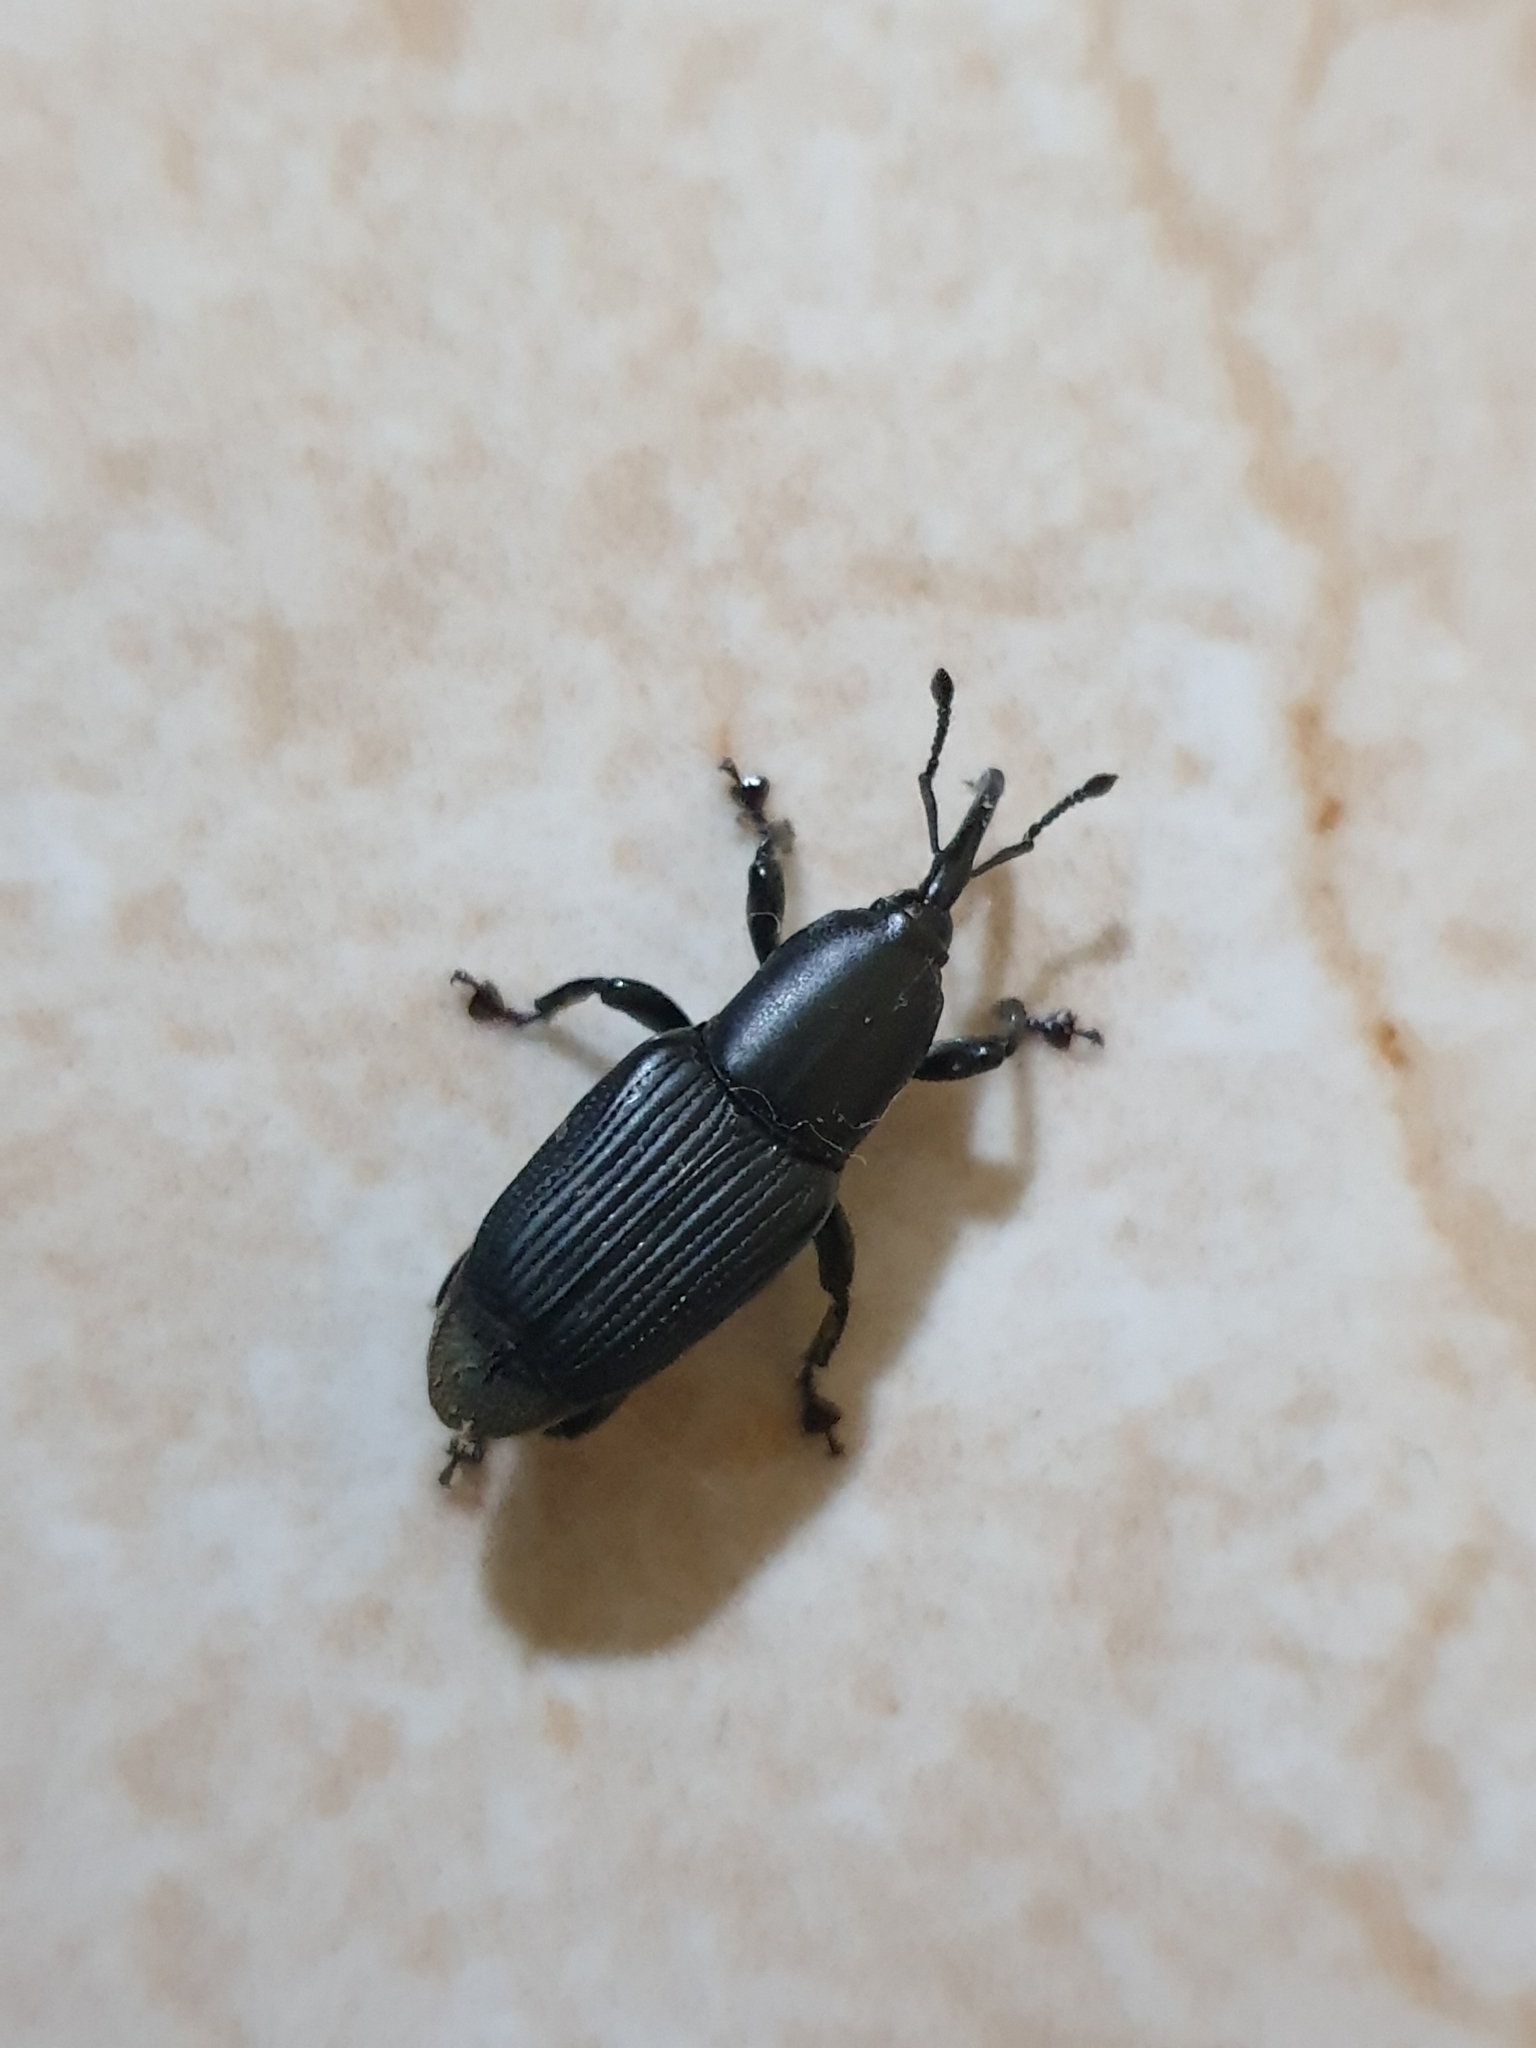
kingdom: Animalia
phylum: Arthropoda
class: Insecta
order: Coleoptera
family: Dryophthoridae
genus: Odoiporus
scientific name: Odoiporus longicollis
